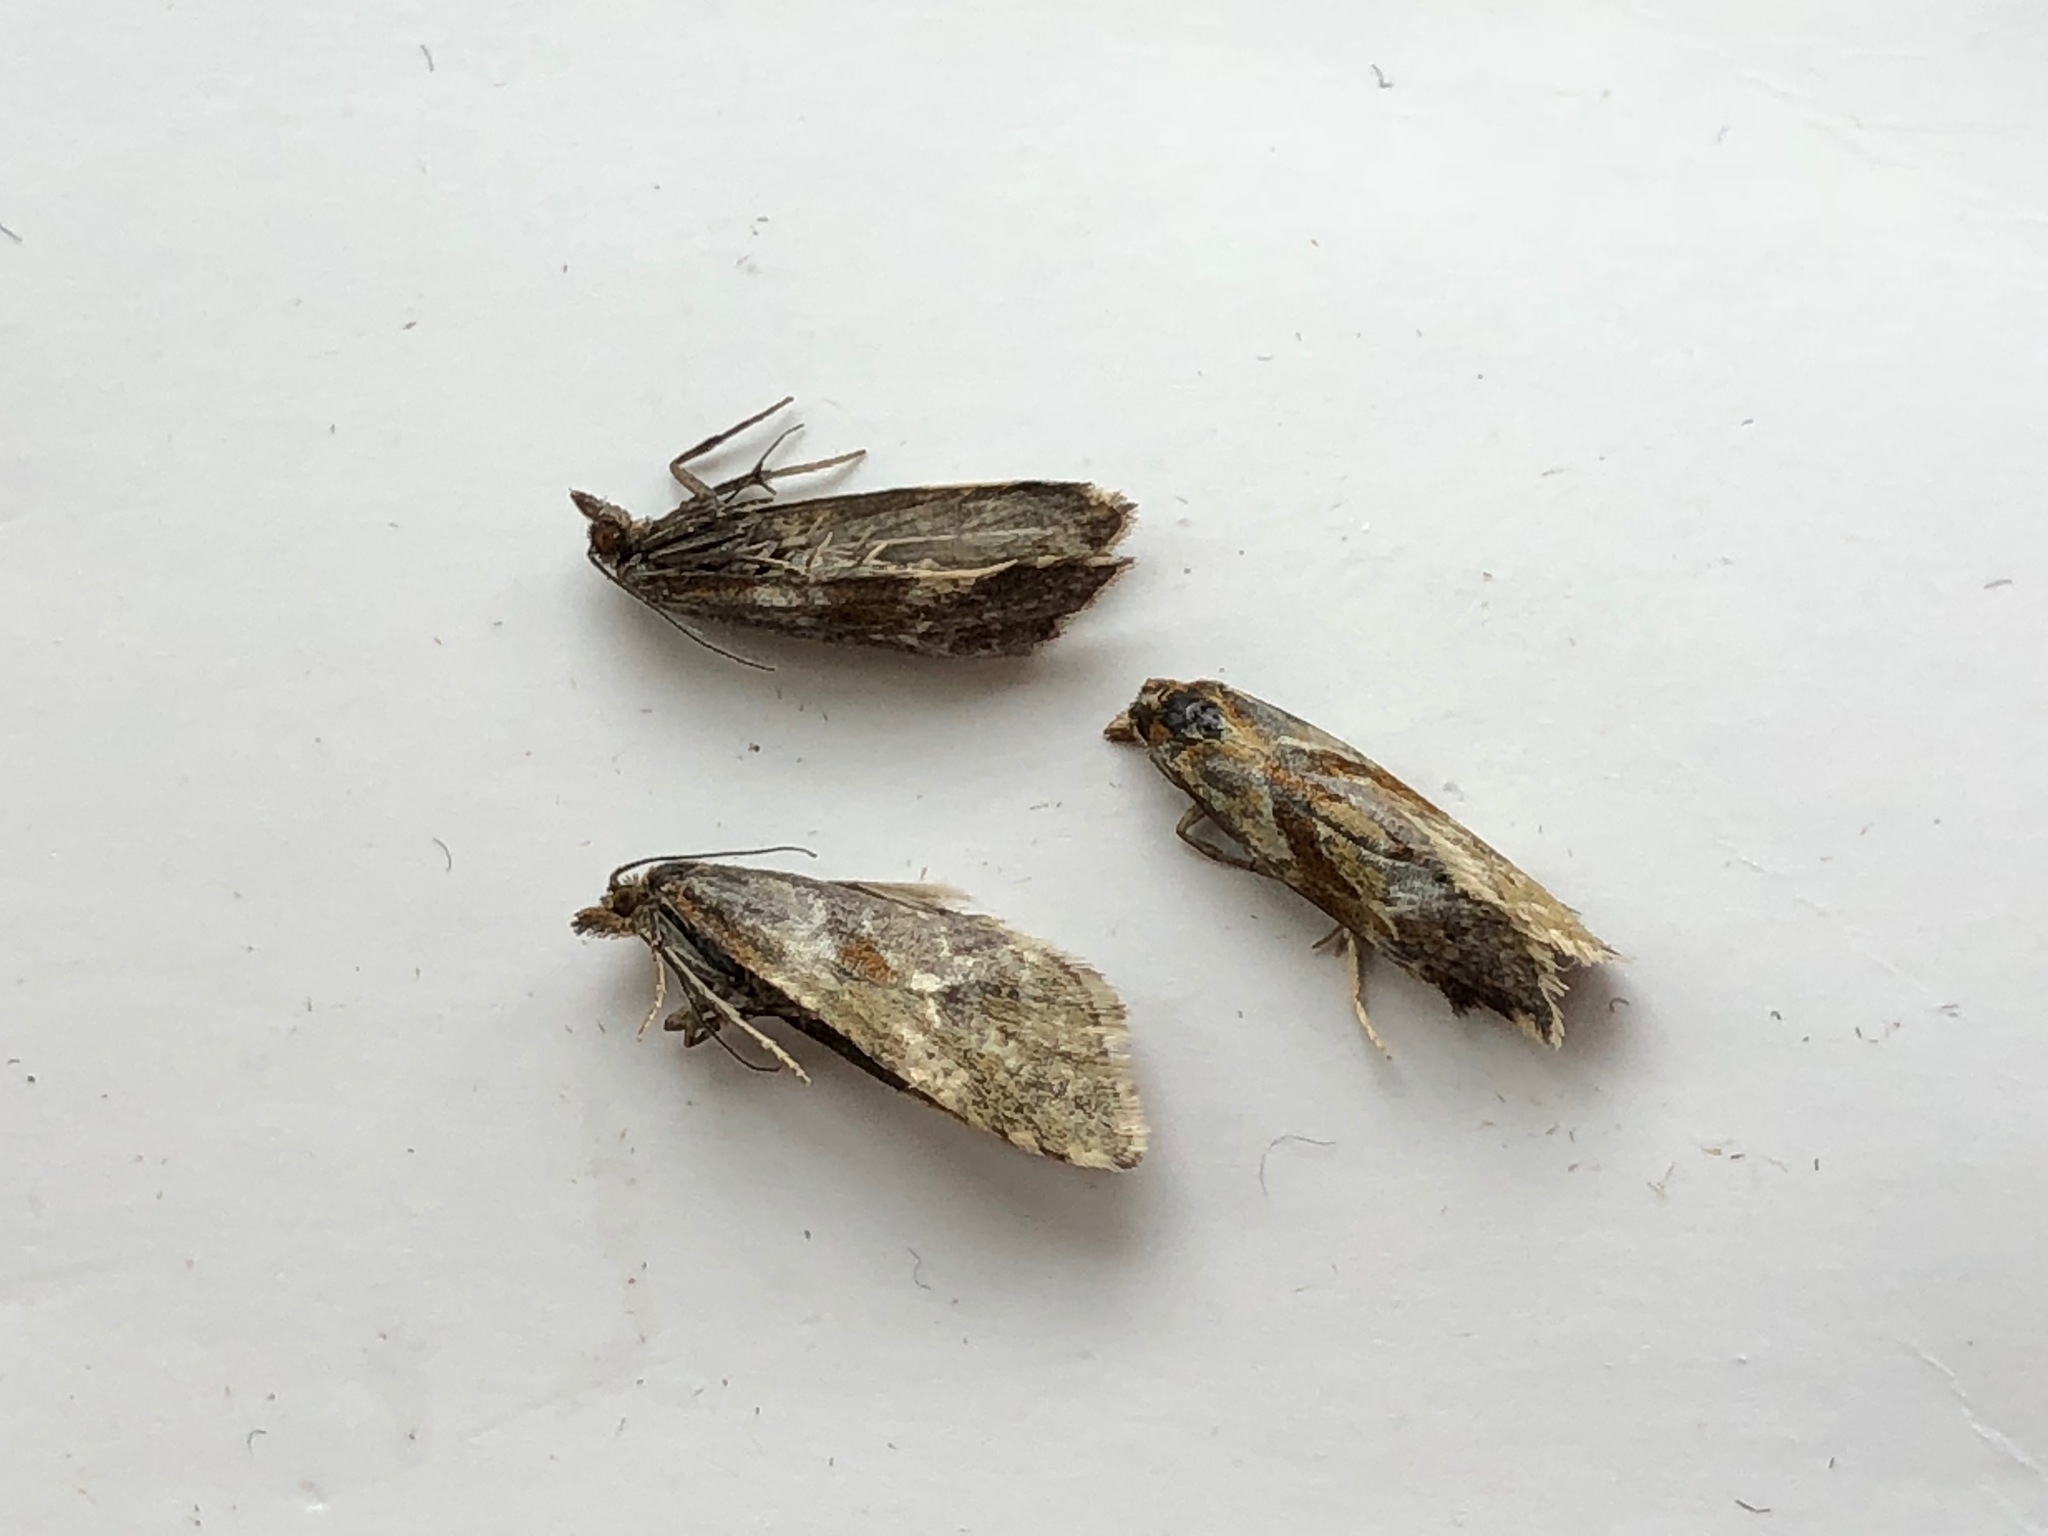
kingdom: Animalia
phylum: Arthropoda
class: Insecta
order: Lepidoptera
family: Tortricidae
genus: Aethes
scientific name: Aethes deutschiana
